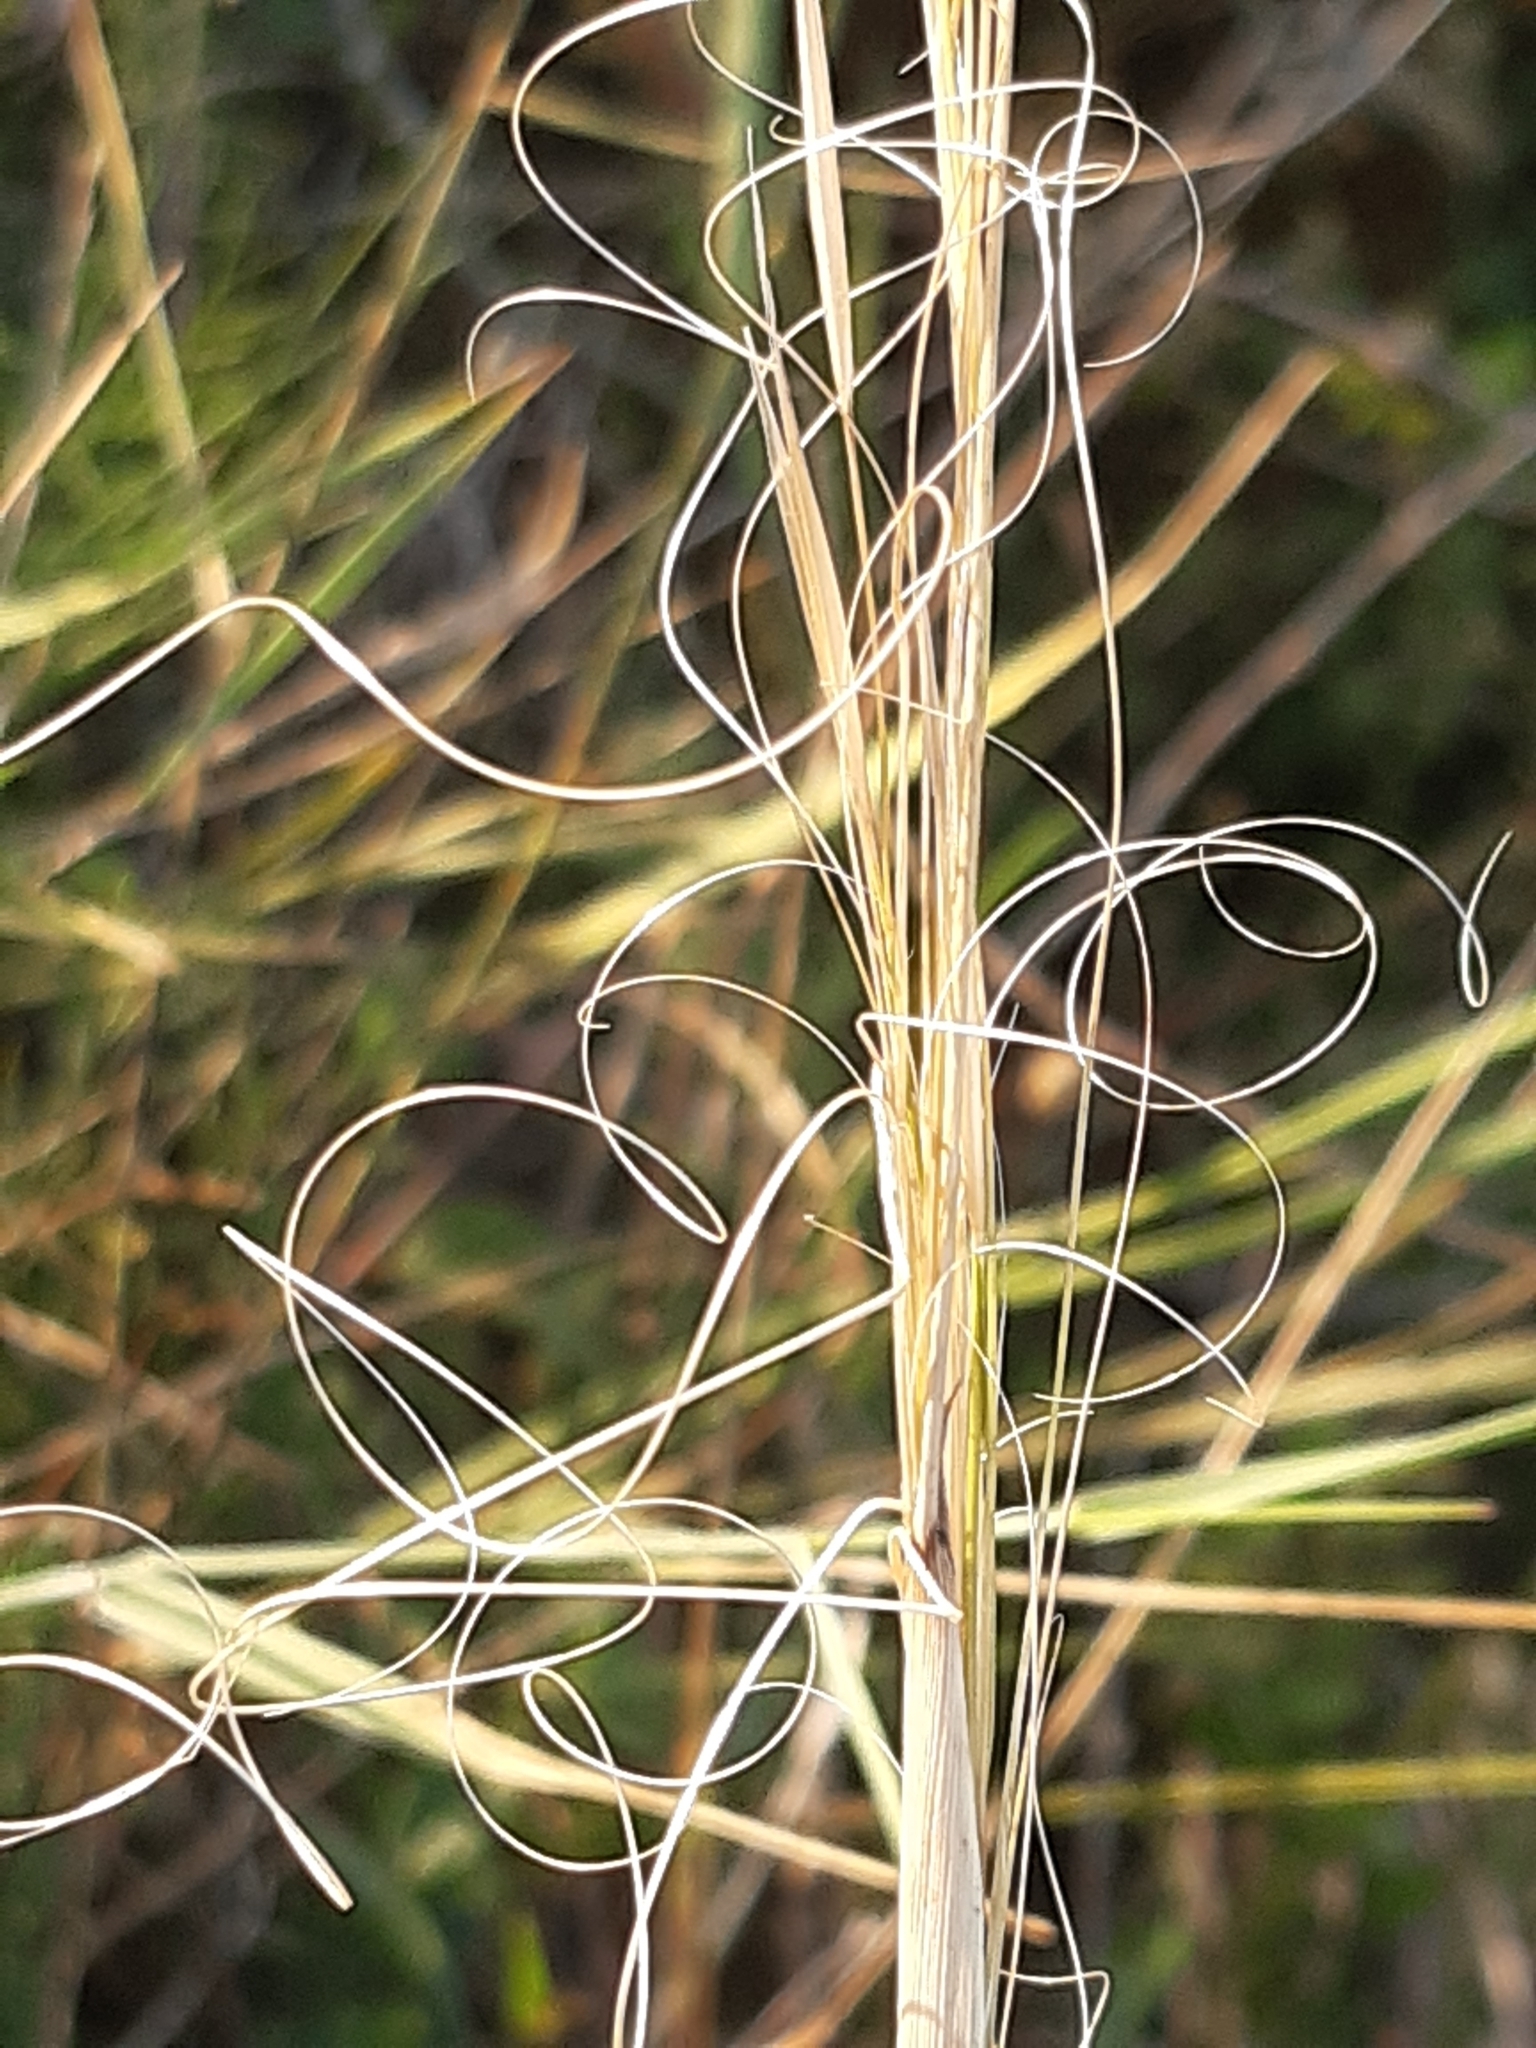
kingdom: Plantae
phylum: Tracheophyta
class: Liliopsida
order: Poales
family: Poaceae
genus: Stipa
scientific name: Stipa capillata
